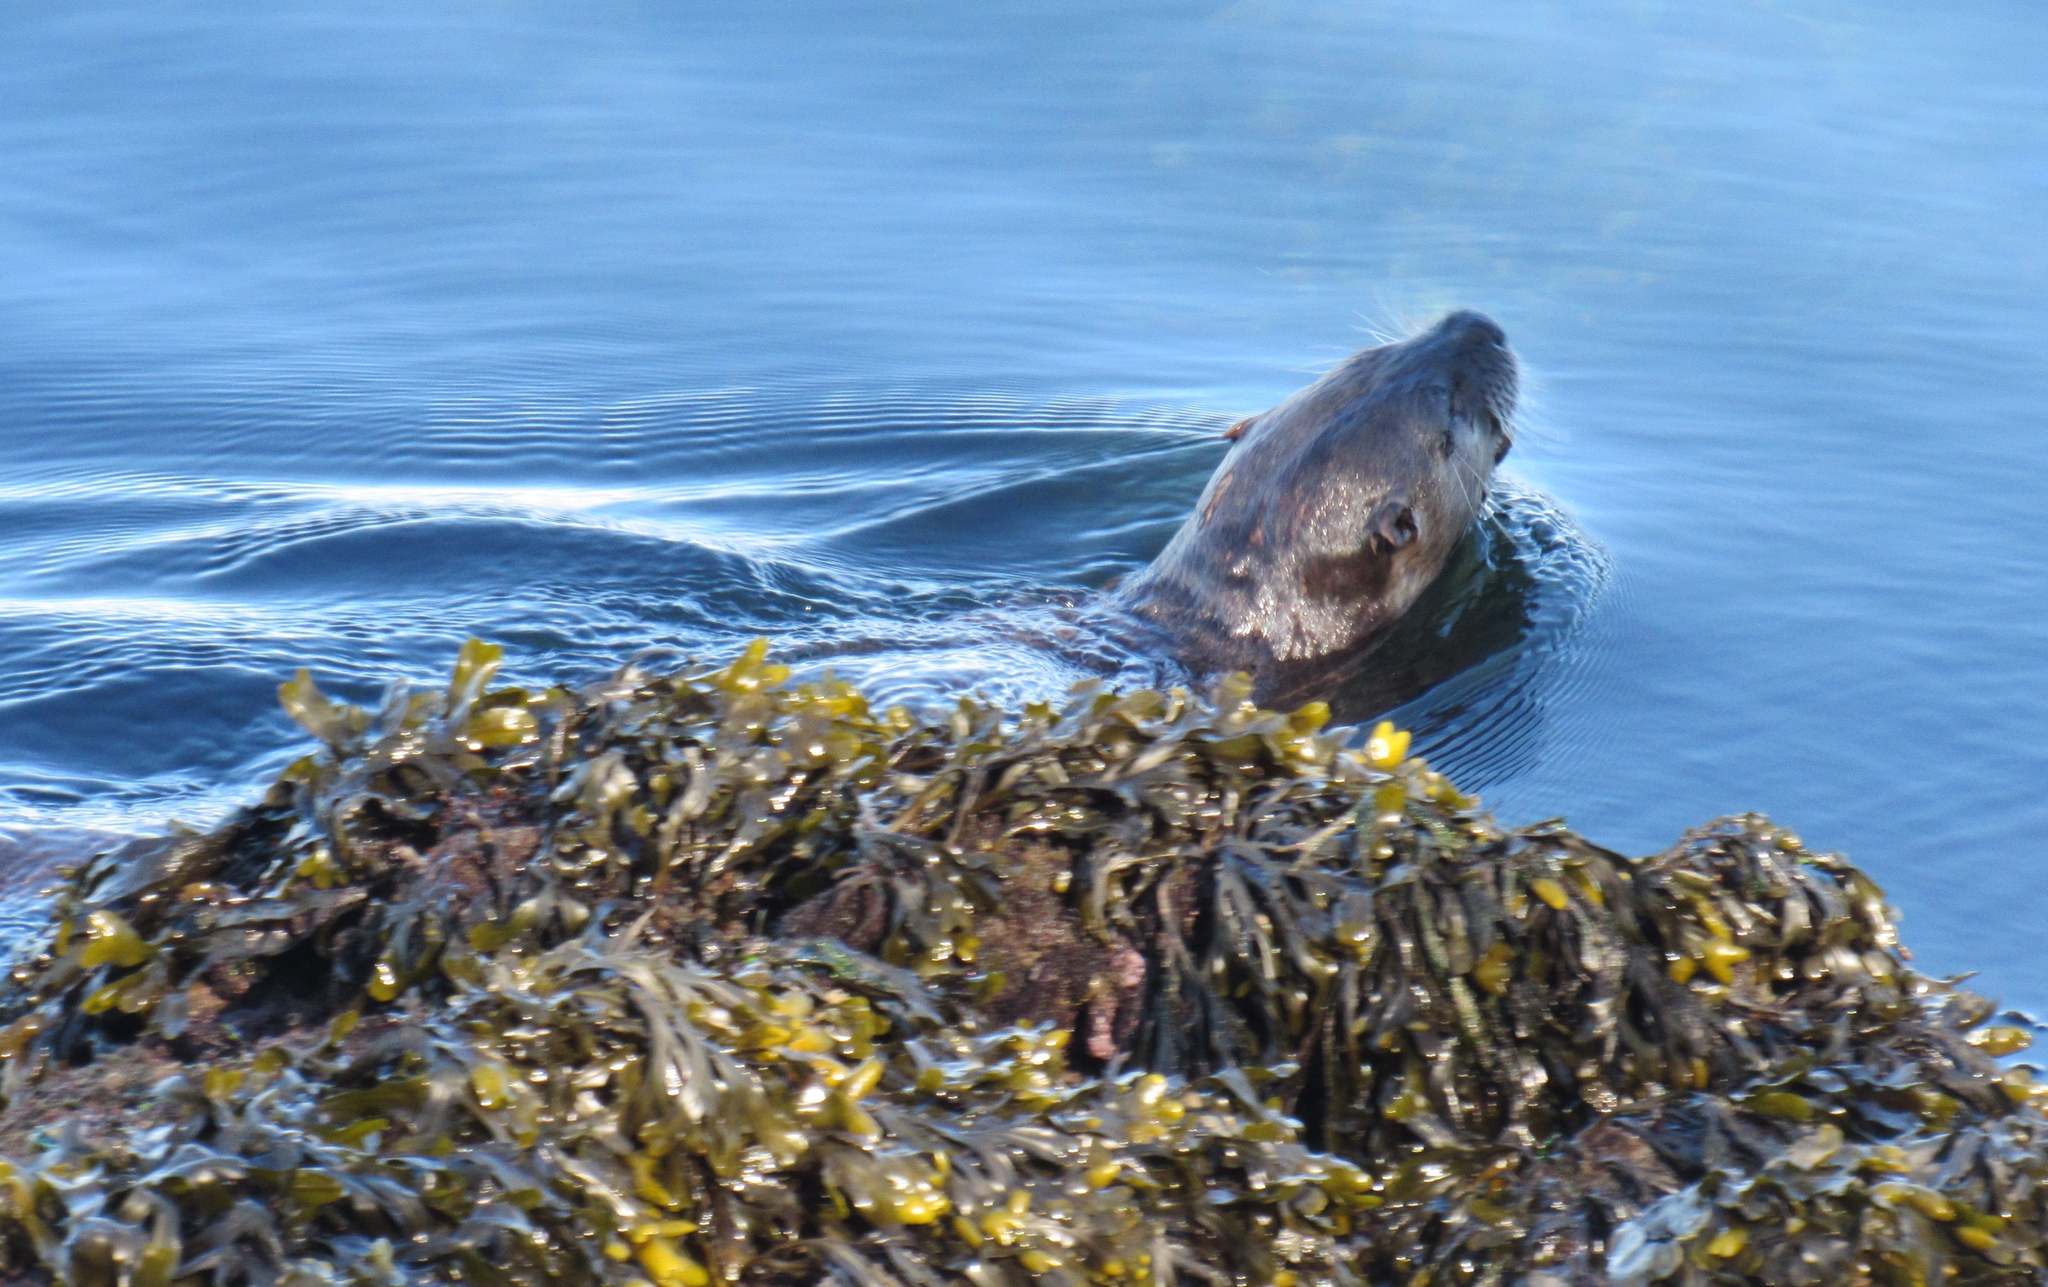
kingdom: Animalia
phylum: Chordata
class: Mammalia
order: Carnivora
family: Mustelidae
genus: Lontra
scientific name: Lontra canadensis
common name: North american river otter
